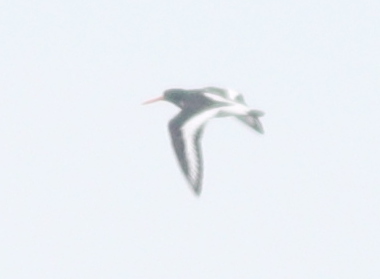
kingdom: Animalia
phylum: Chordata
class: Aves
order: Charadriiformes
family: Haematopodidae
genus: Haematopus
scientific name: Haematopus ostralegus
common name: Eurasian oystercatcher
